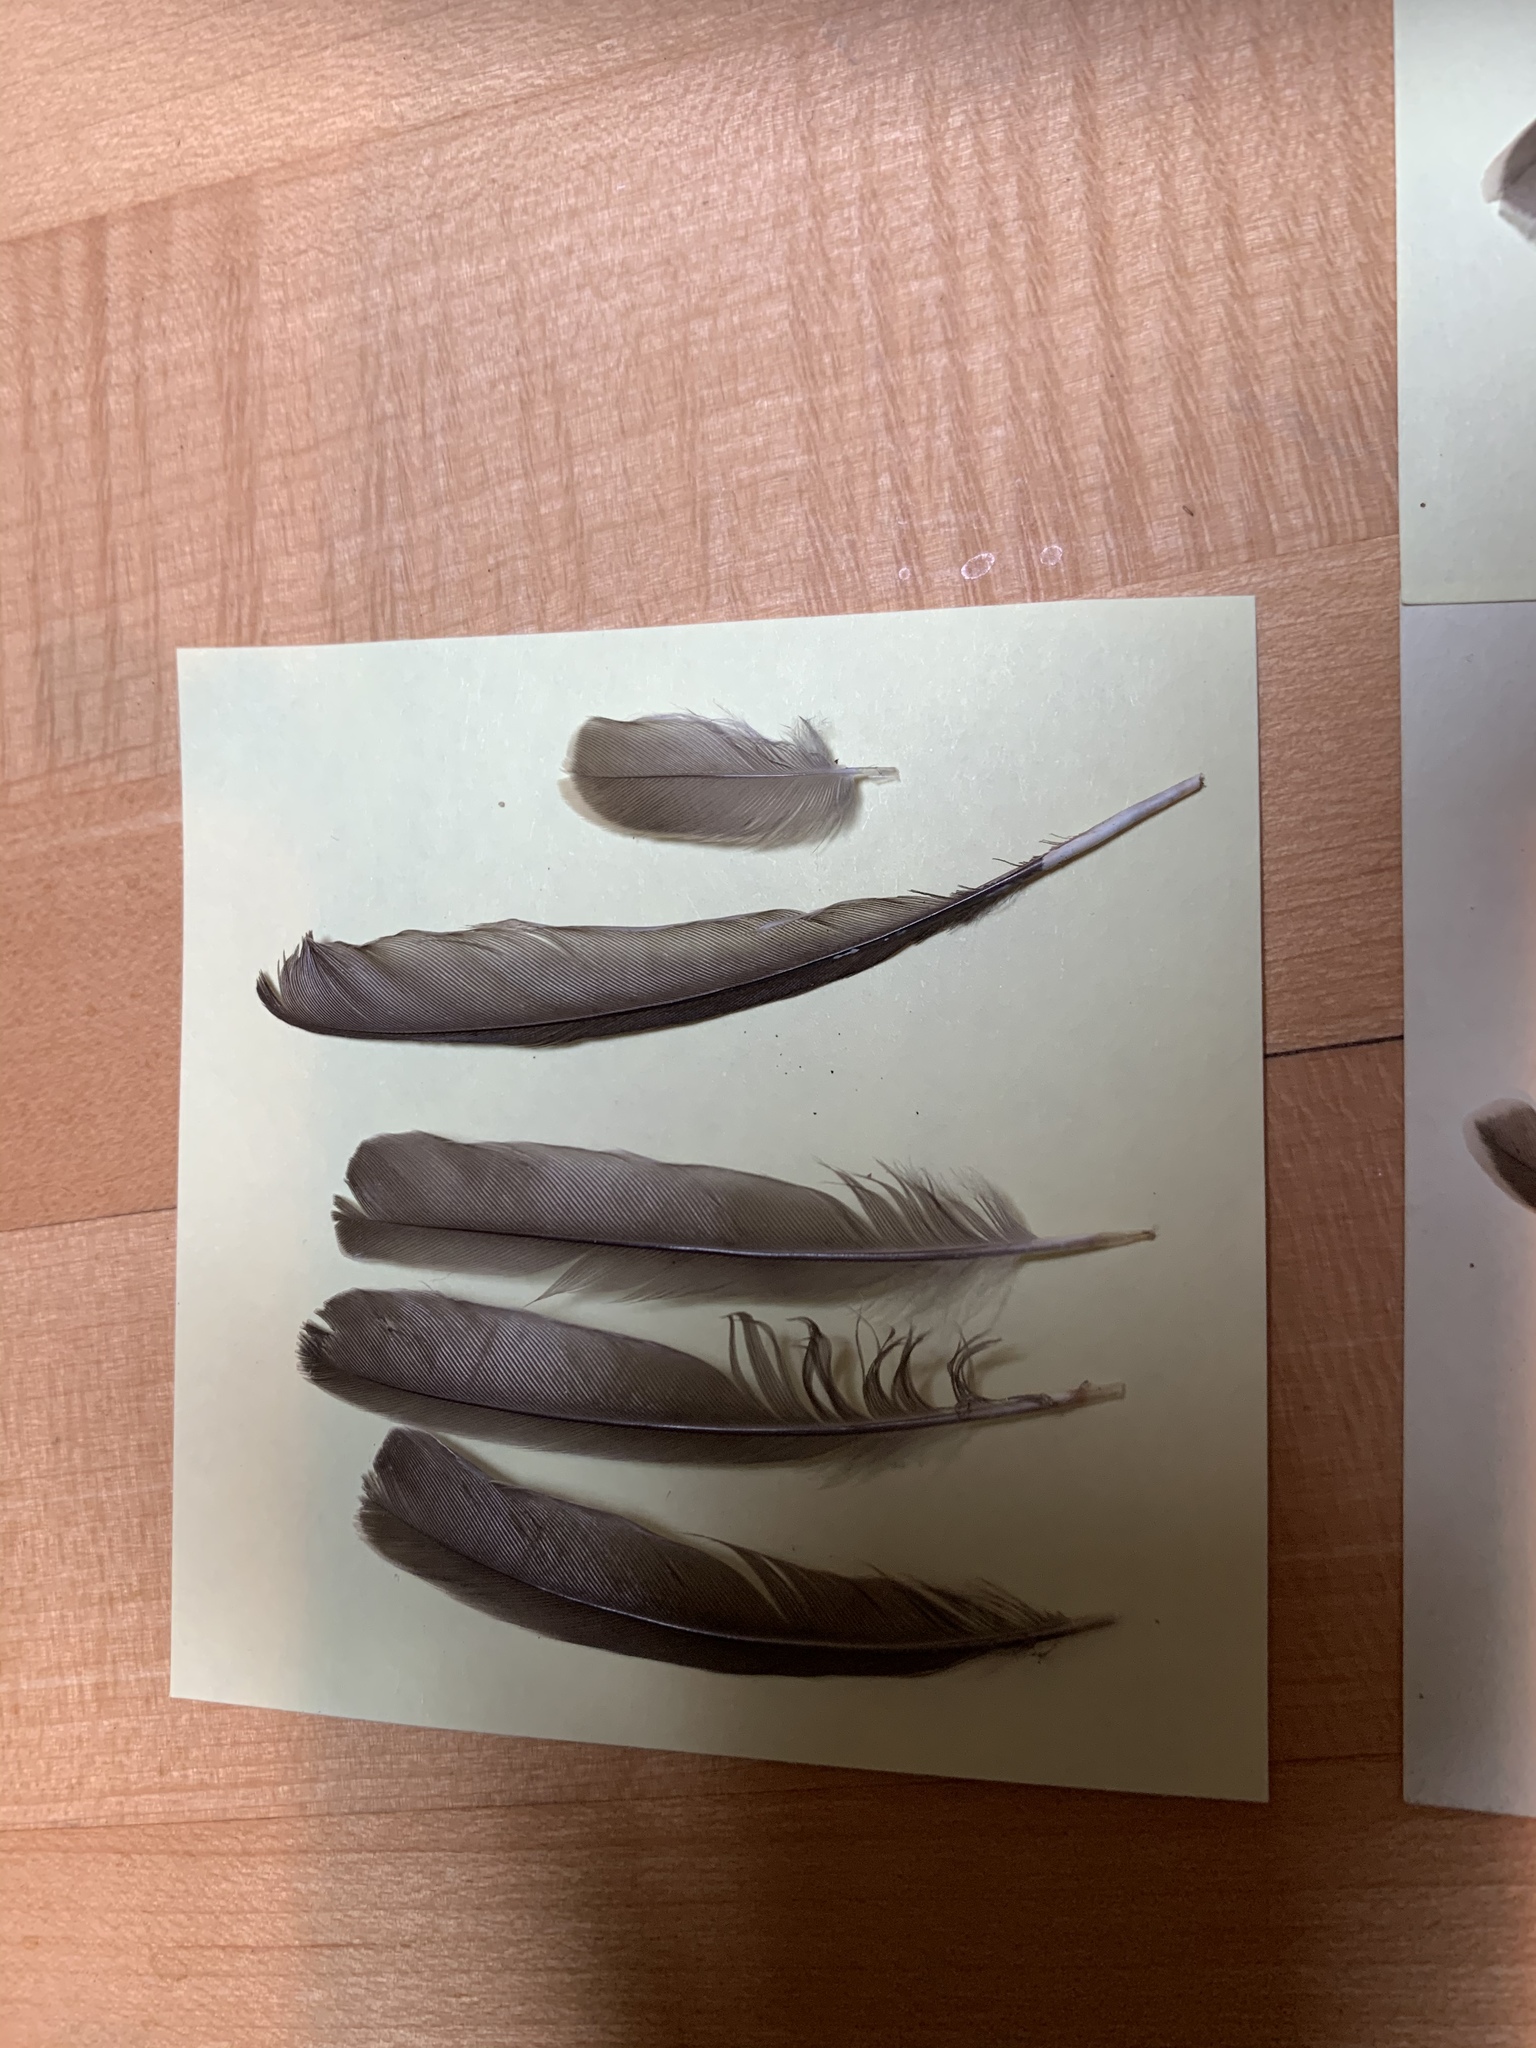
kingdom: Animalia
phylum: Chordata
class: Aves
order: Passeriformes
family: Icteridae
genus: Molothrus
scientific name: Molothrus ater
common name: Brown-headed cowbird
